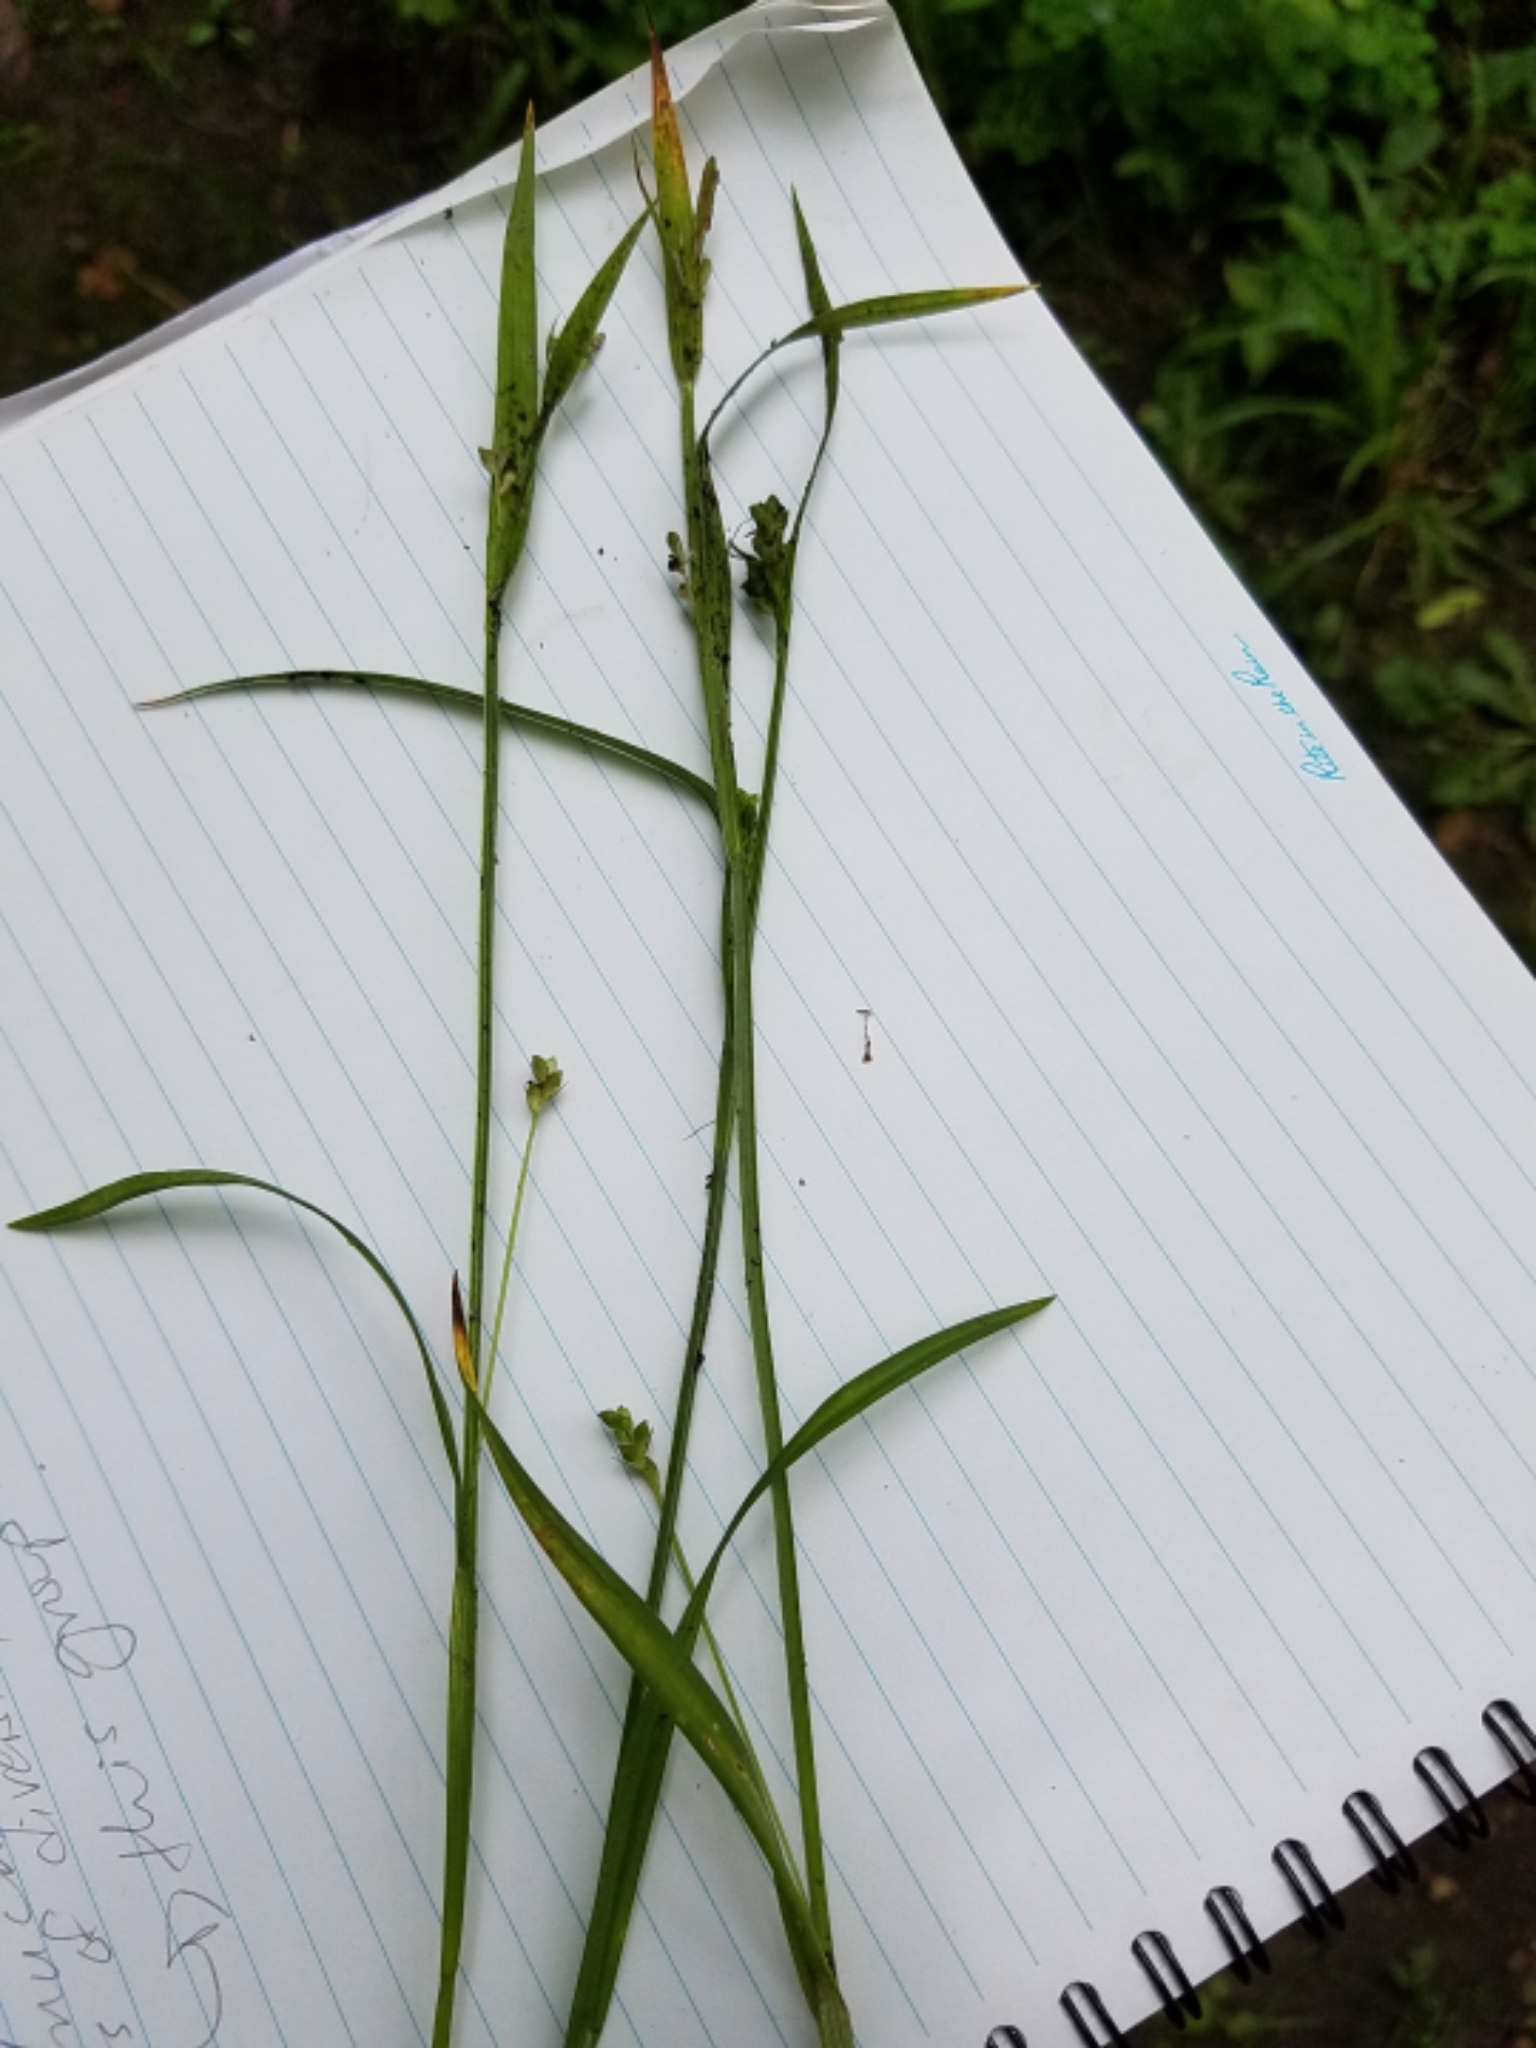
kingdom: Plantae
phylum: Tracheophyta
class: Liliopsida
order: Poales
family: Cyperaceae
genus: Carex
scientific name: Carex blanda
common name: Bland sedge
